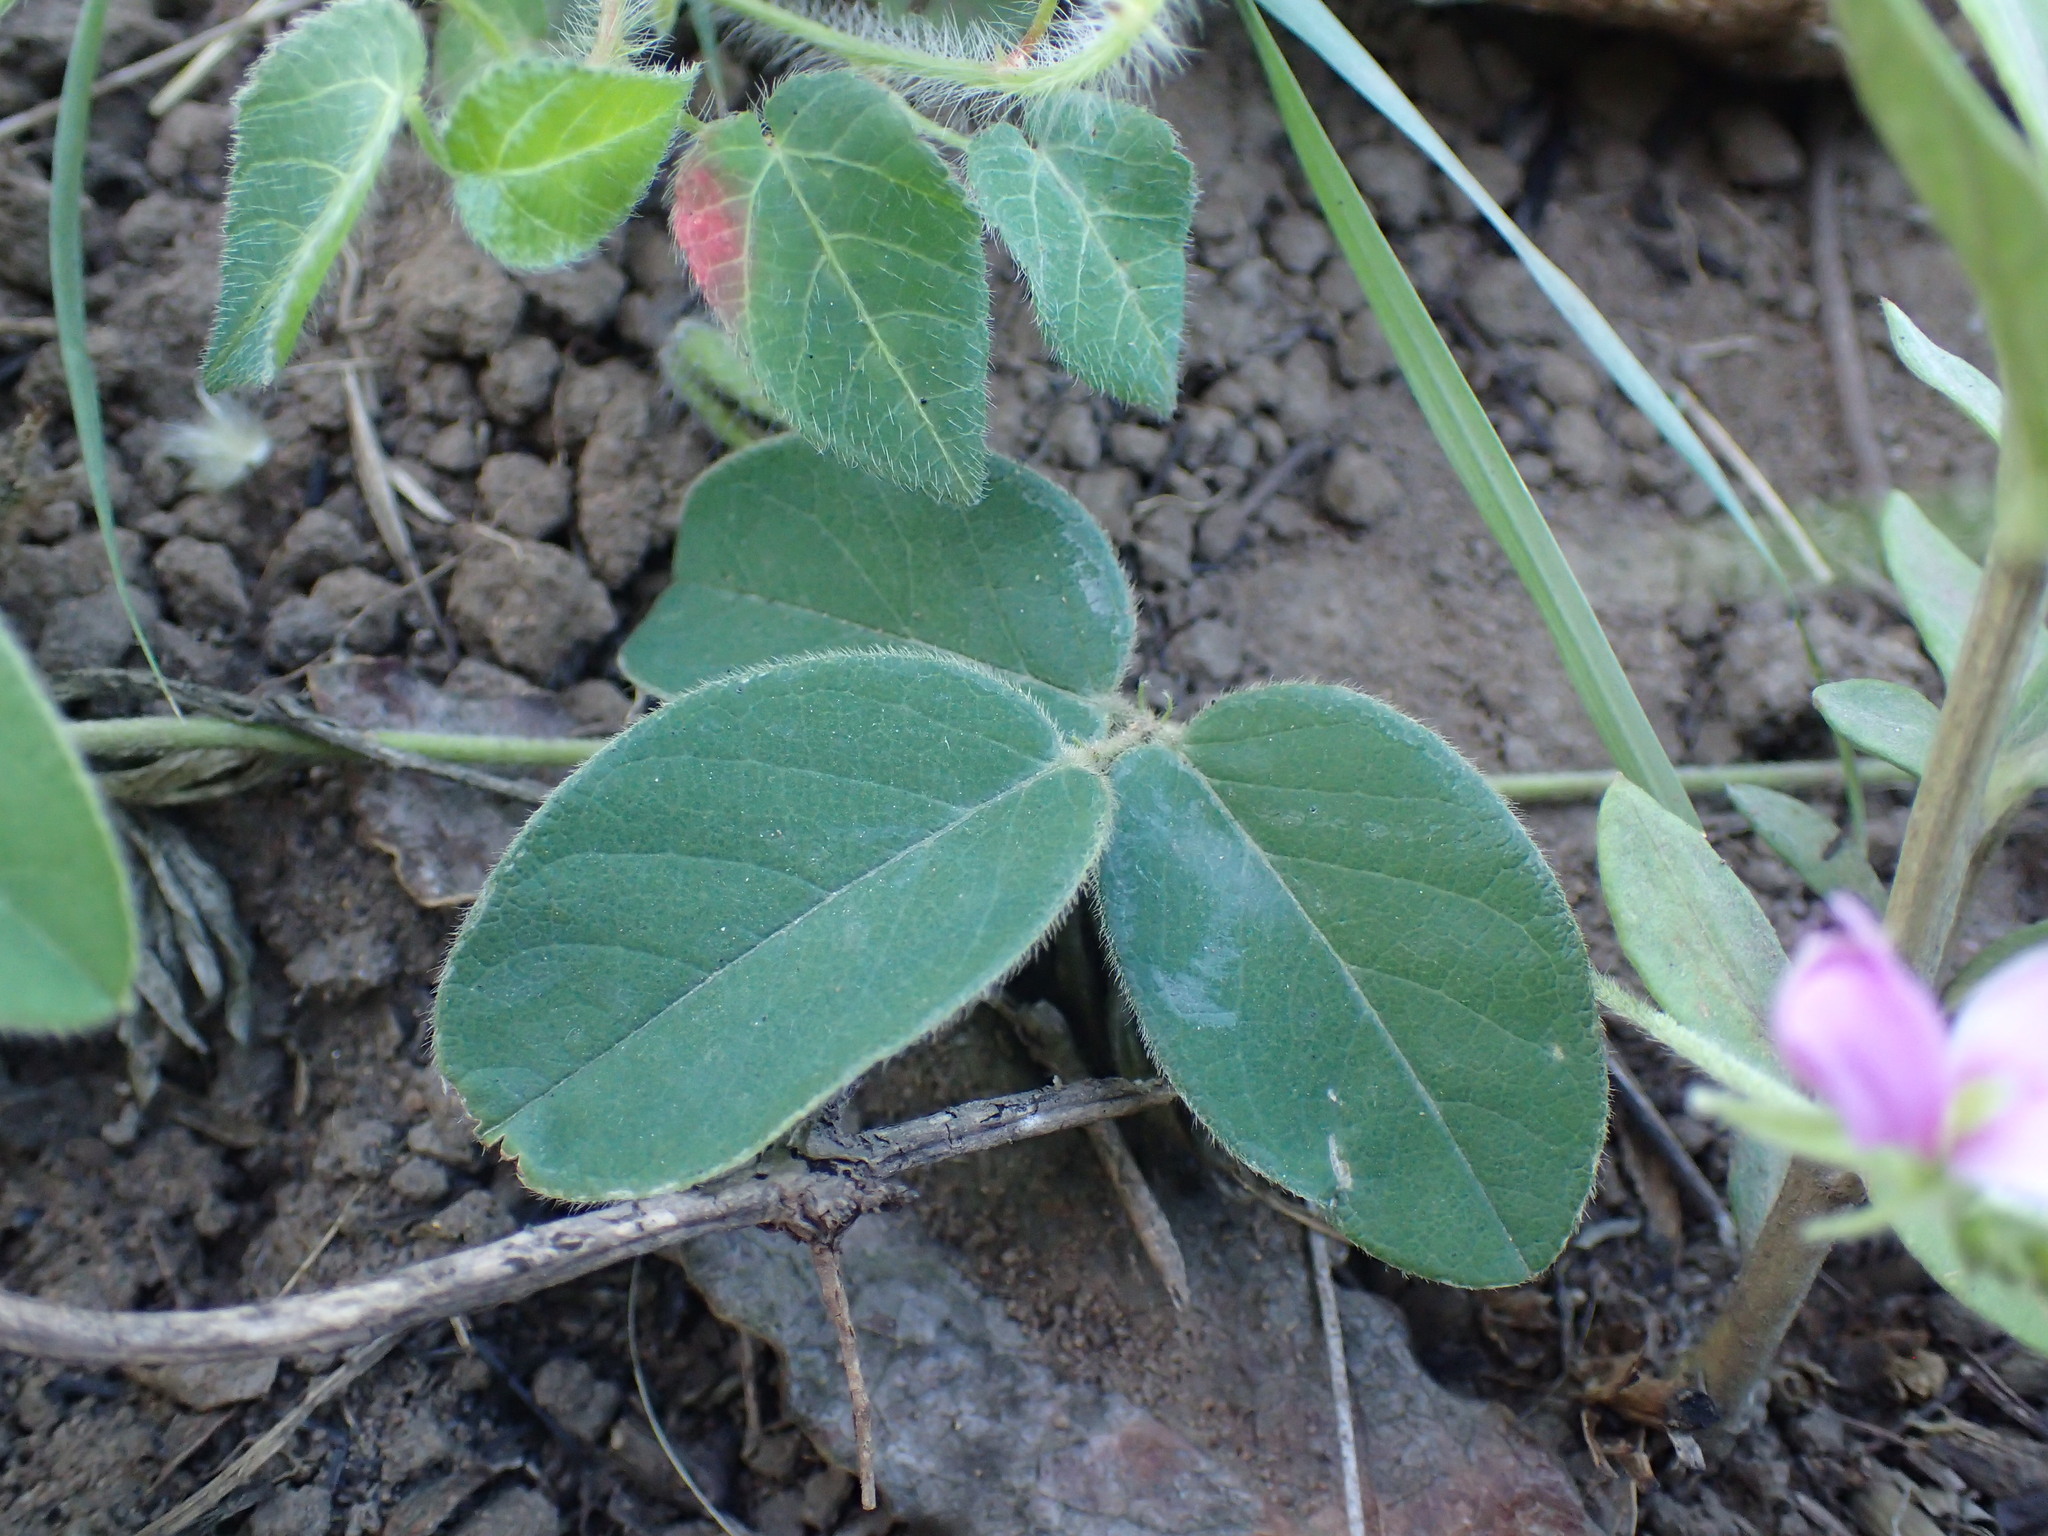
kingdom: Plantae
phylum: Tracheophyta
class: Magnoliopsida
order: Fabales
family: Fabaceae
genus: Tephrosia
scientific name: Tephrosia macropoda
